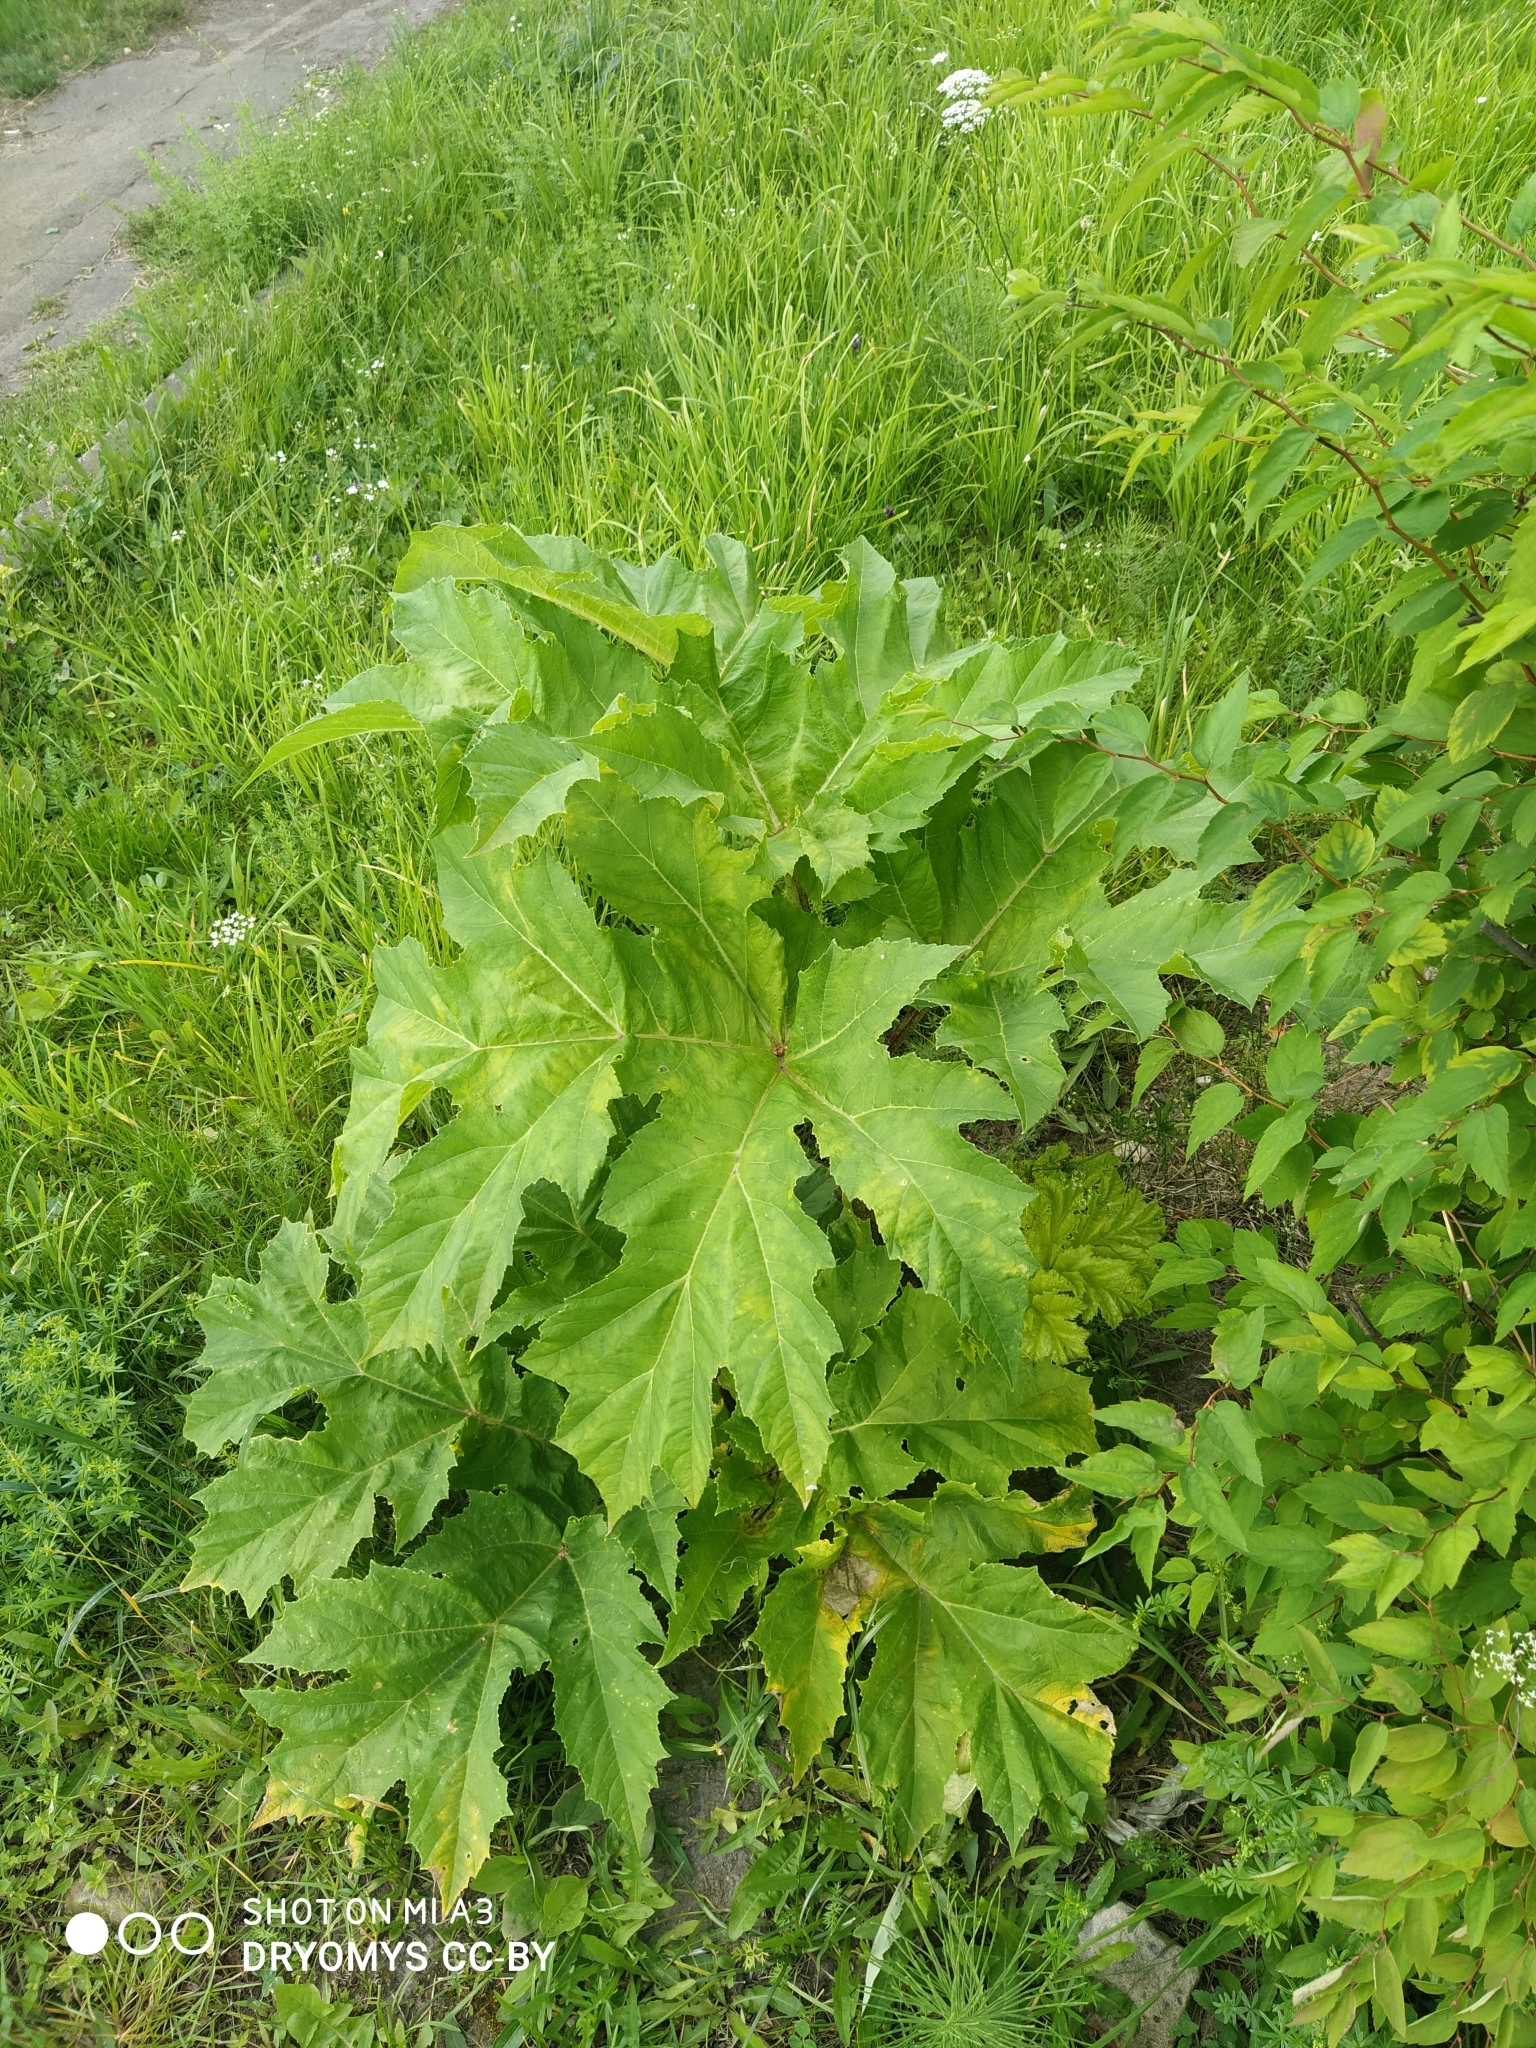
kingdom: Plantae
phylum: Tracheophyta
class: Magnoliopsida
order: Apiales
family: Apiaceae
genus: Heracleum
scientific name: Heracleum sosnowskyi
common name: Sosnowsky's hogweed
